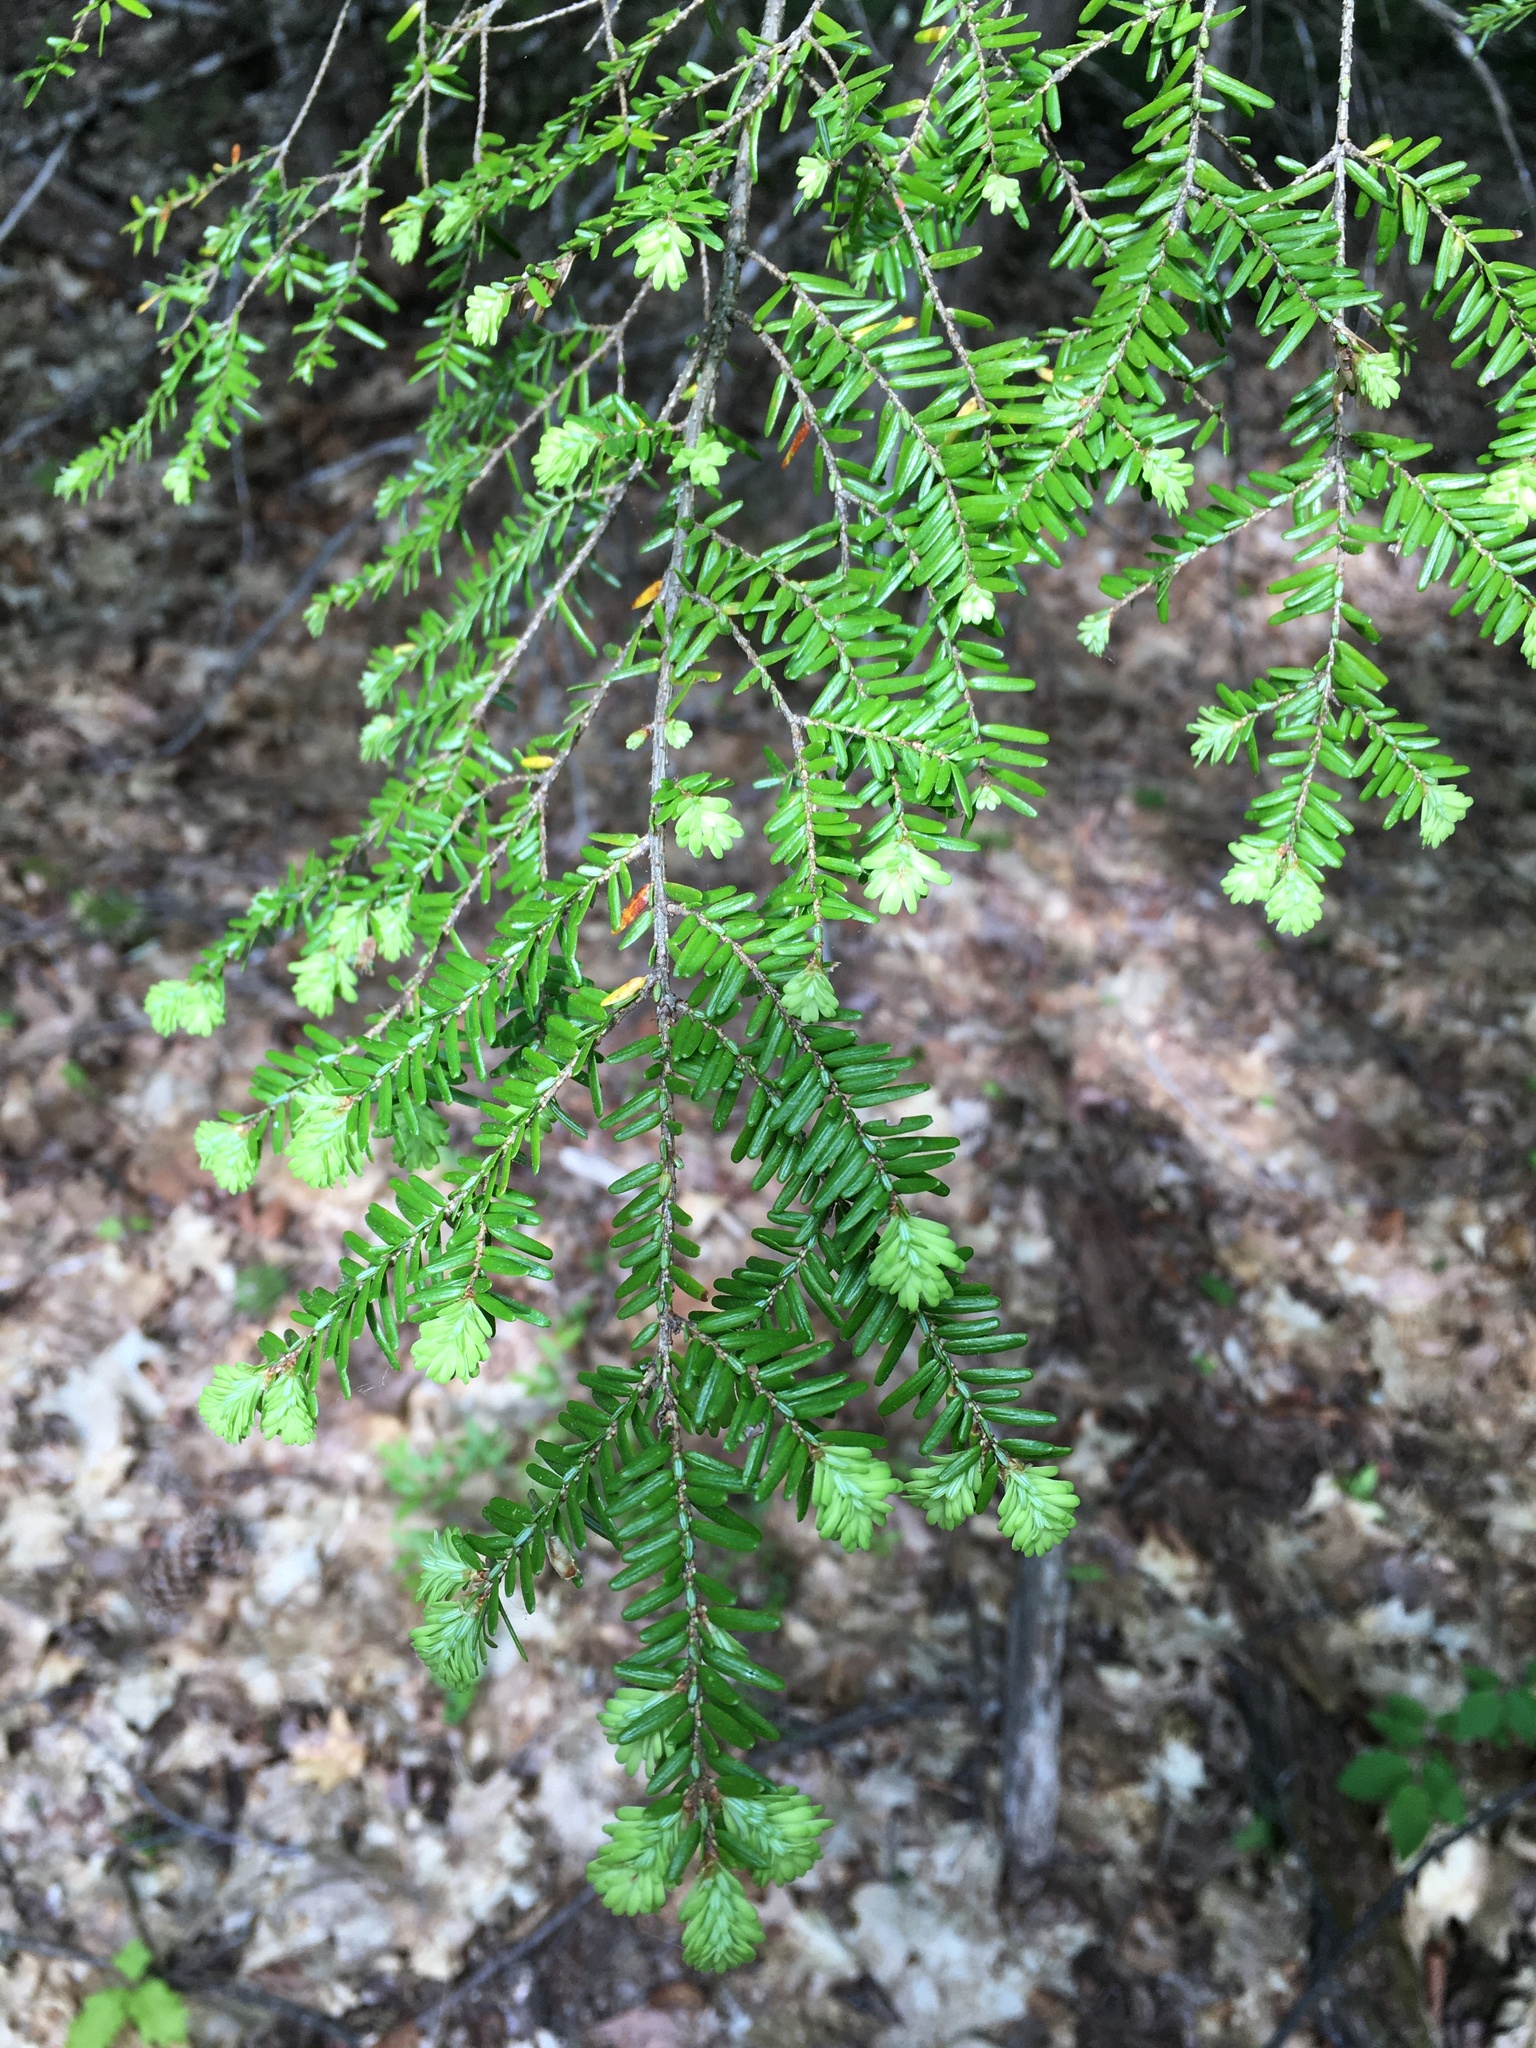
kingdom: Plantae
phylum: Tracheophyta
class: Pinopsida
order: Pinales
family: Pinaceae
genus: Tsuga
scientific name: Tsuga canadensis
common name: Eastern hemlock
